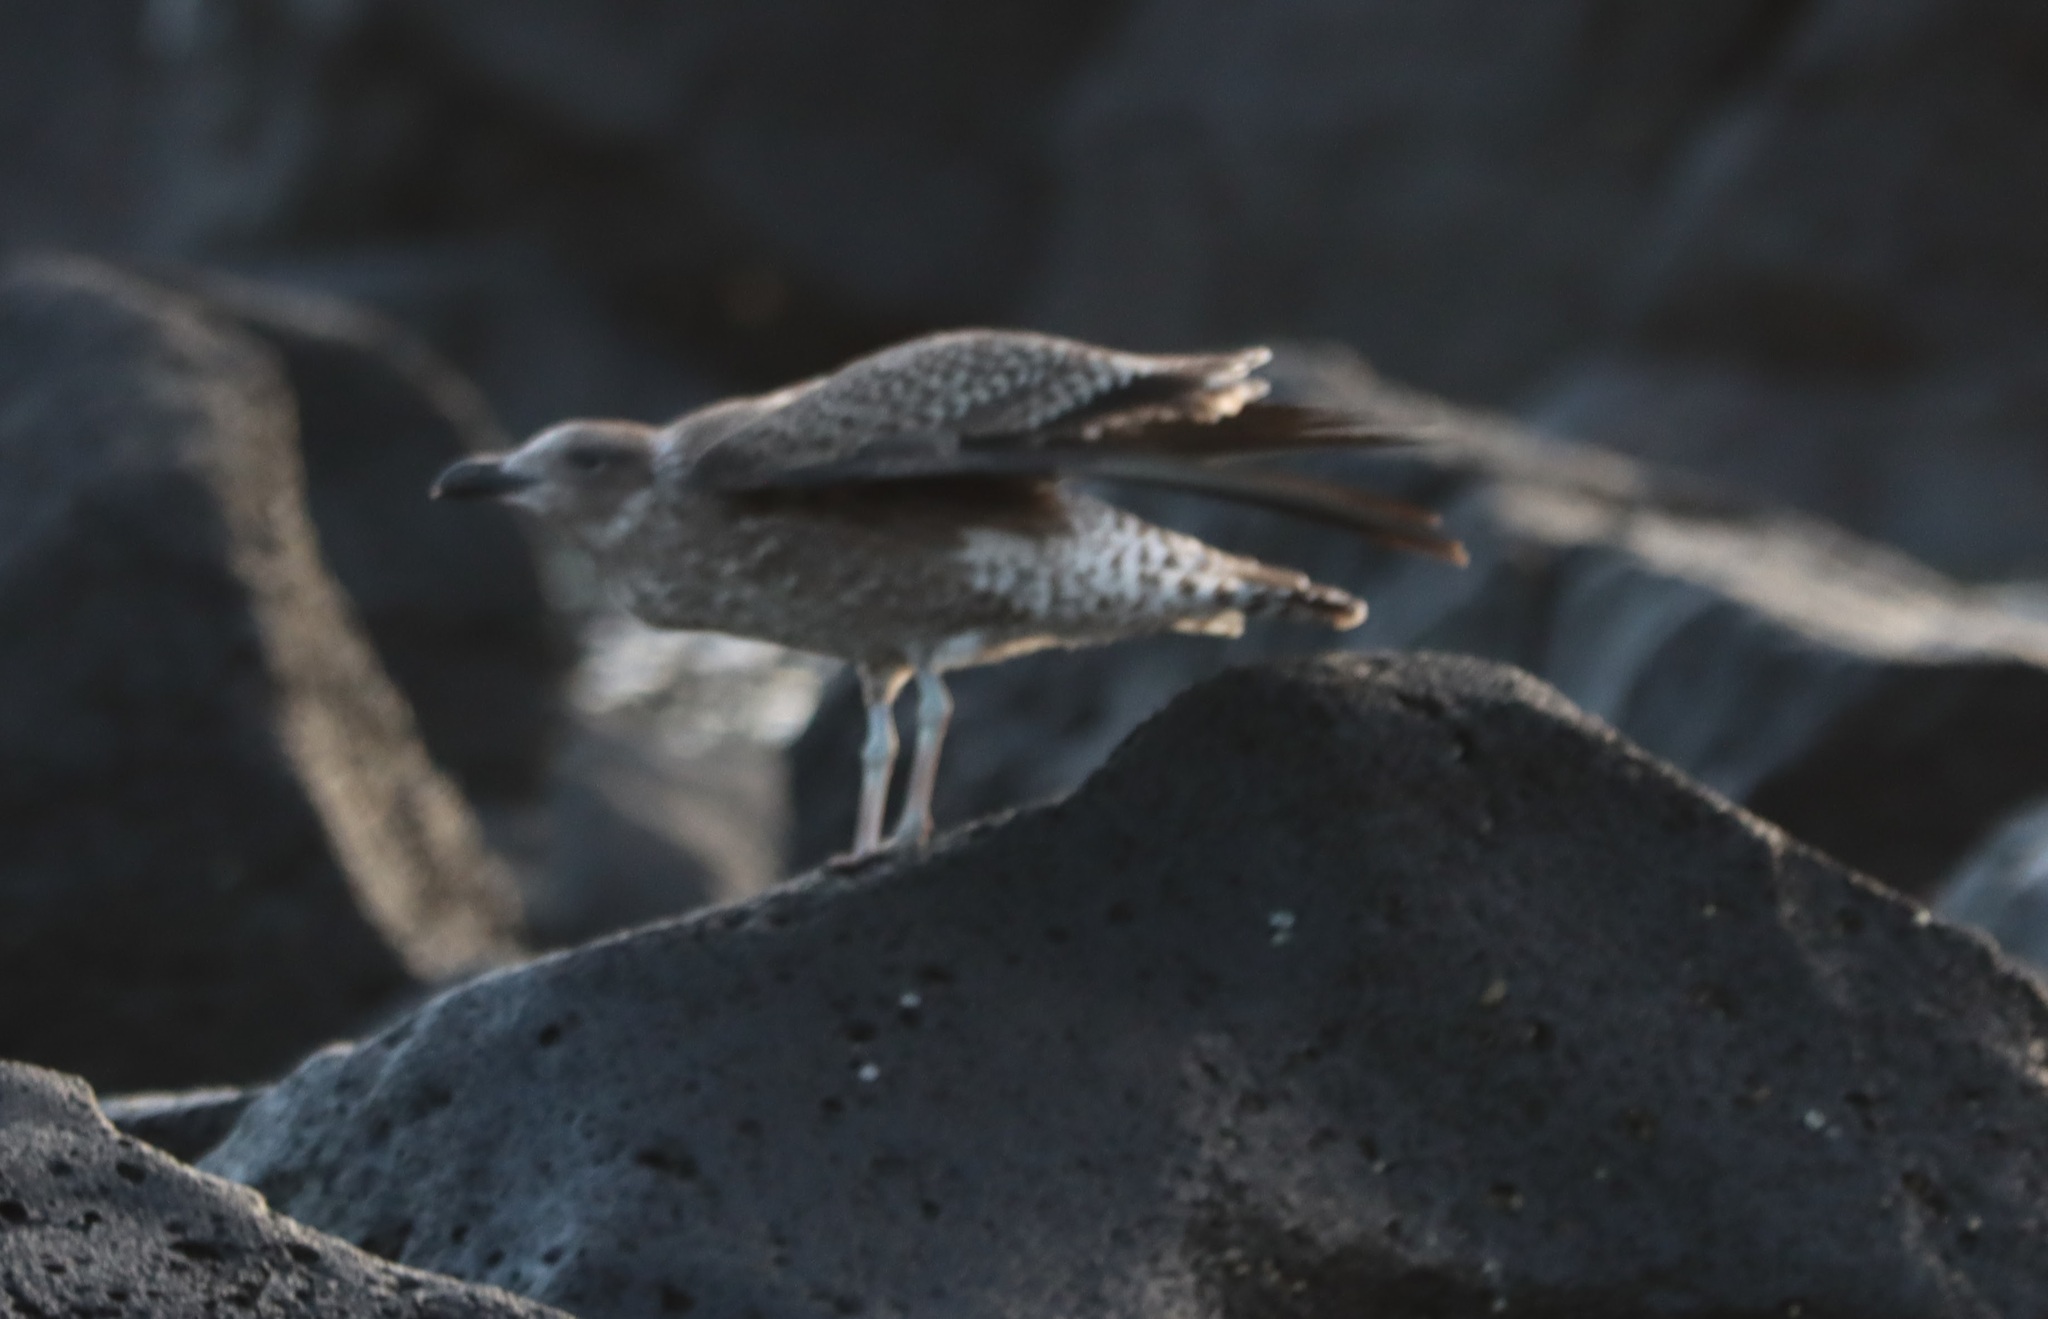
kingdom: Animalia
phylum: Chordata
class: Aves
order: Charadriiformes
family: Laridae
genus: Larus
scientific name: Larus dominicanus
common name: Kelp gull
